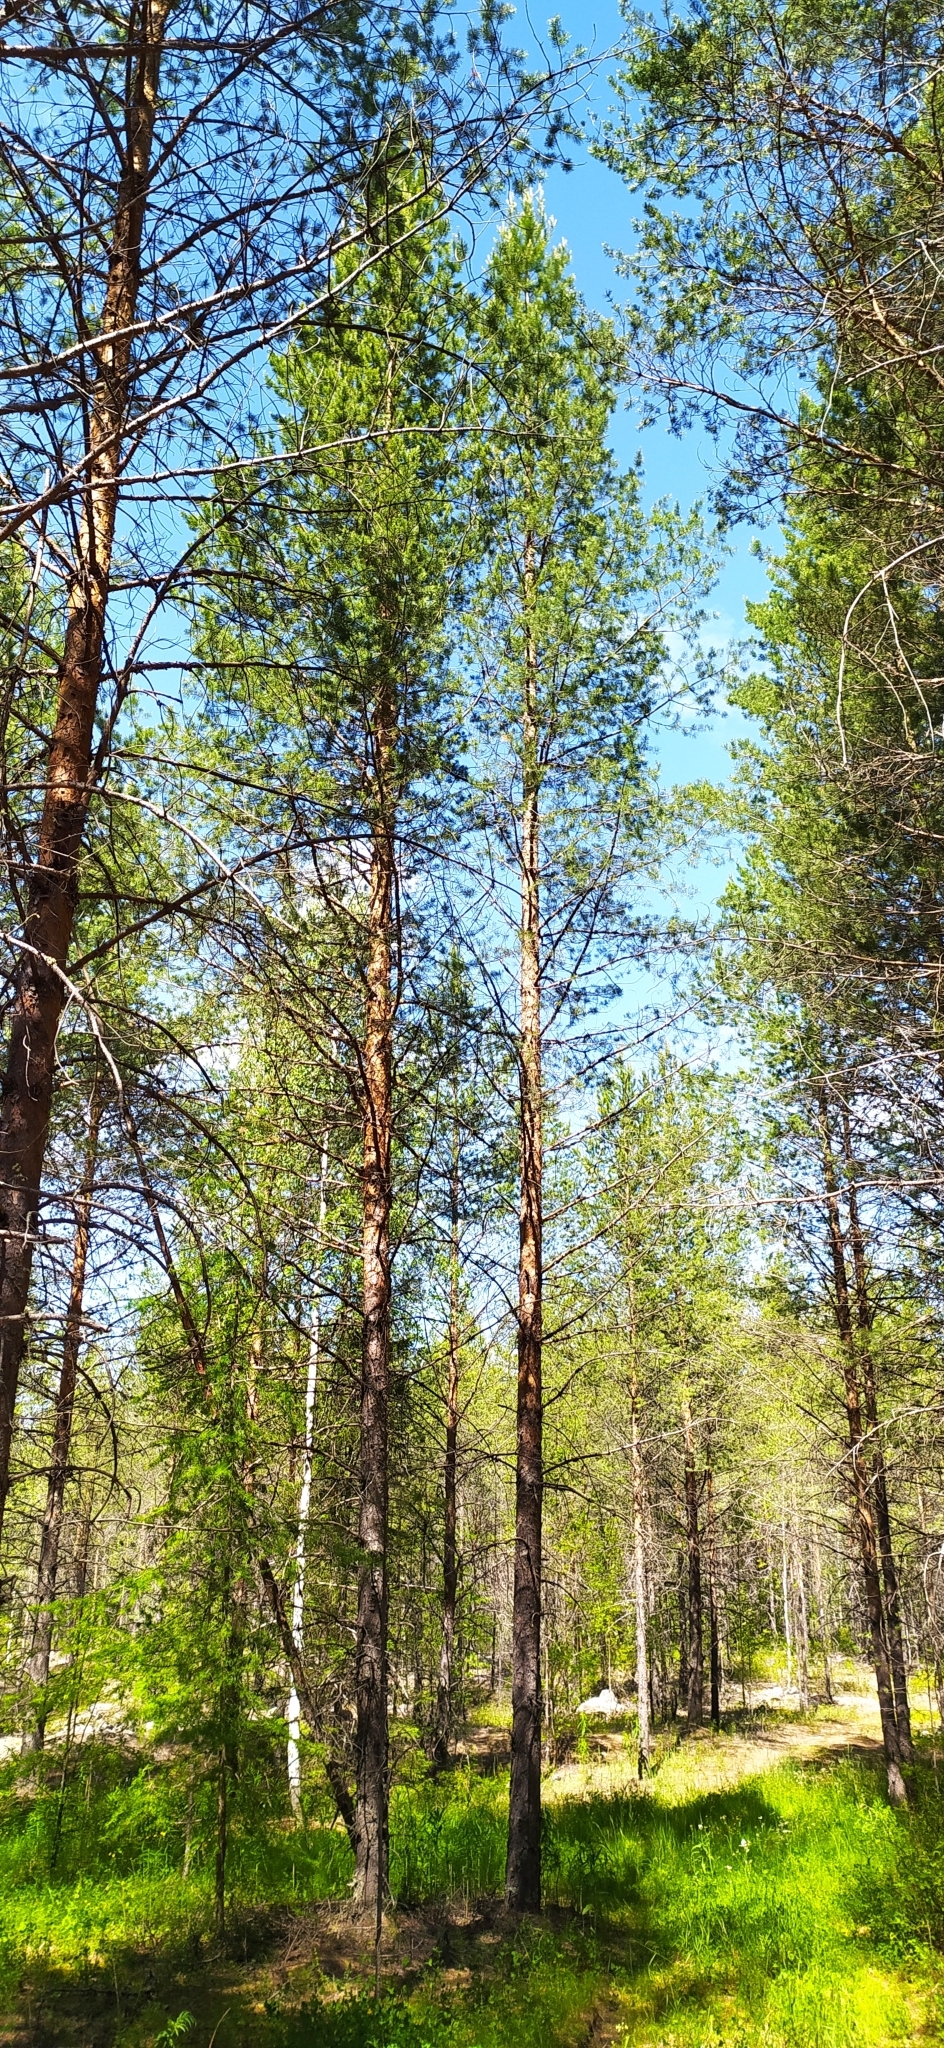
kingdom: Plantae
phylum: Tracheophyta
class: Pinopsida
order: Pinales
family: Pinaceae
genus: Pinus
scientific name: Pinus sylvestris
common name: Scots pine
